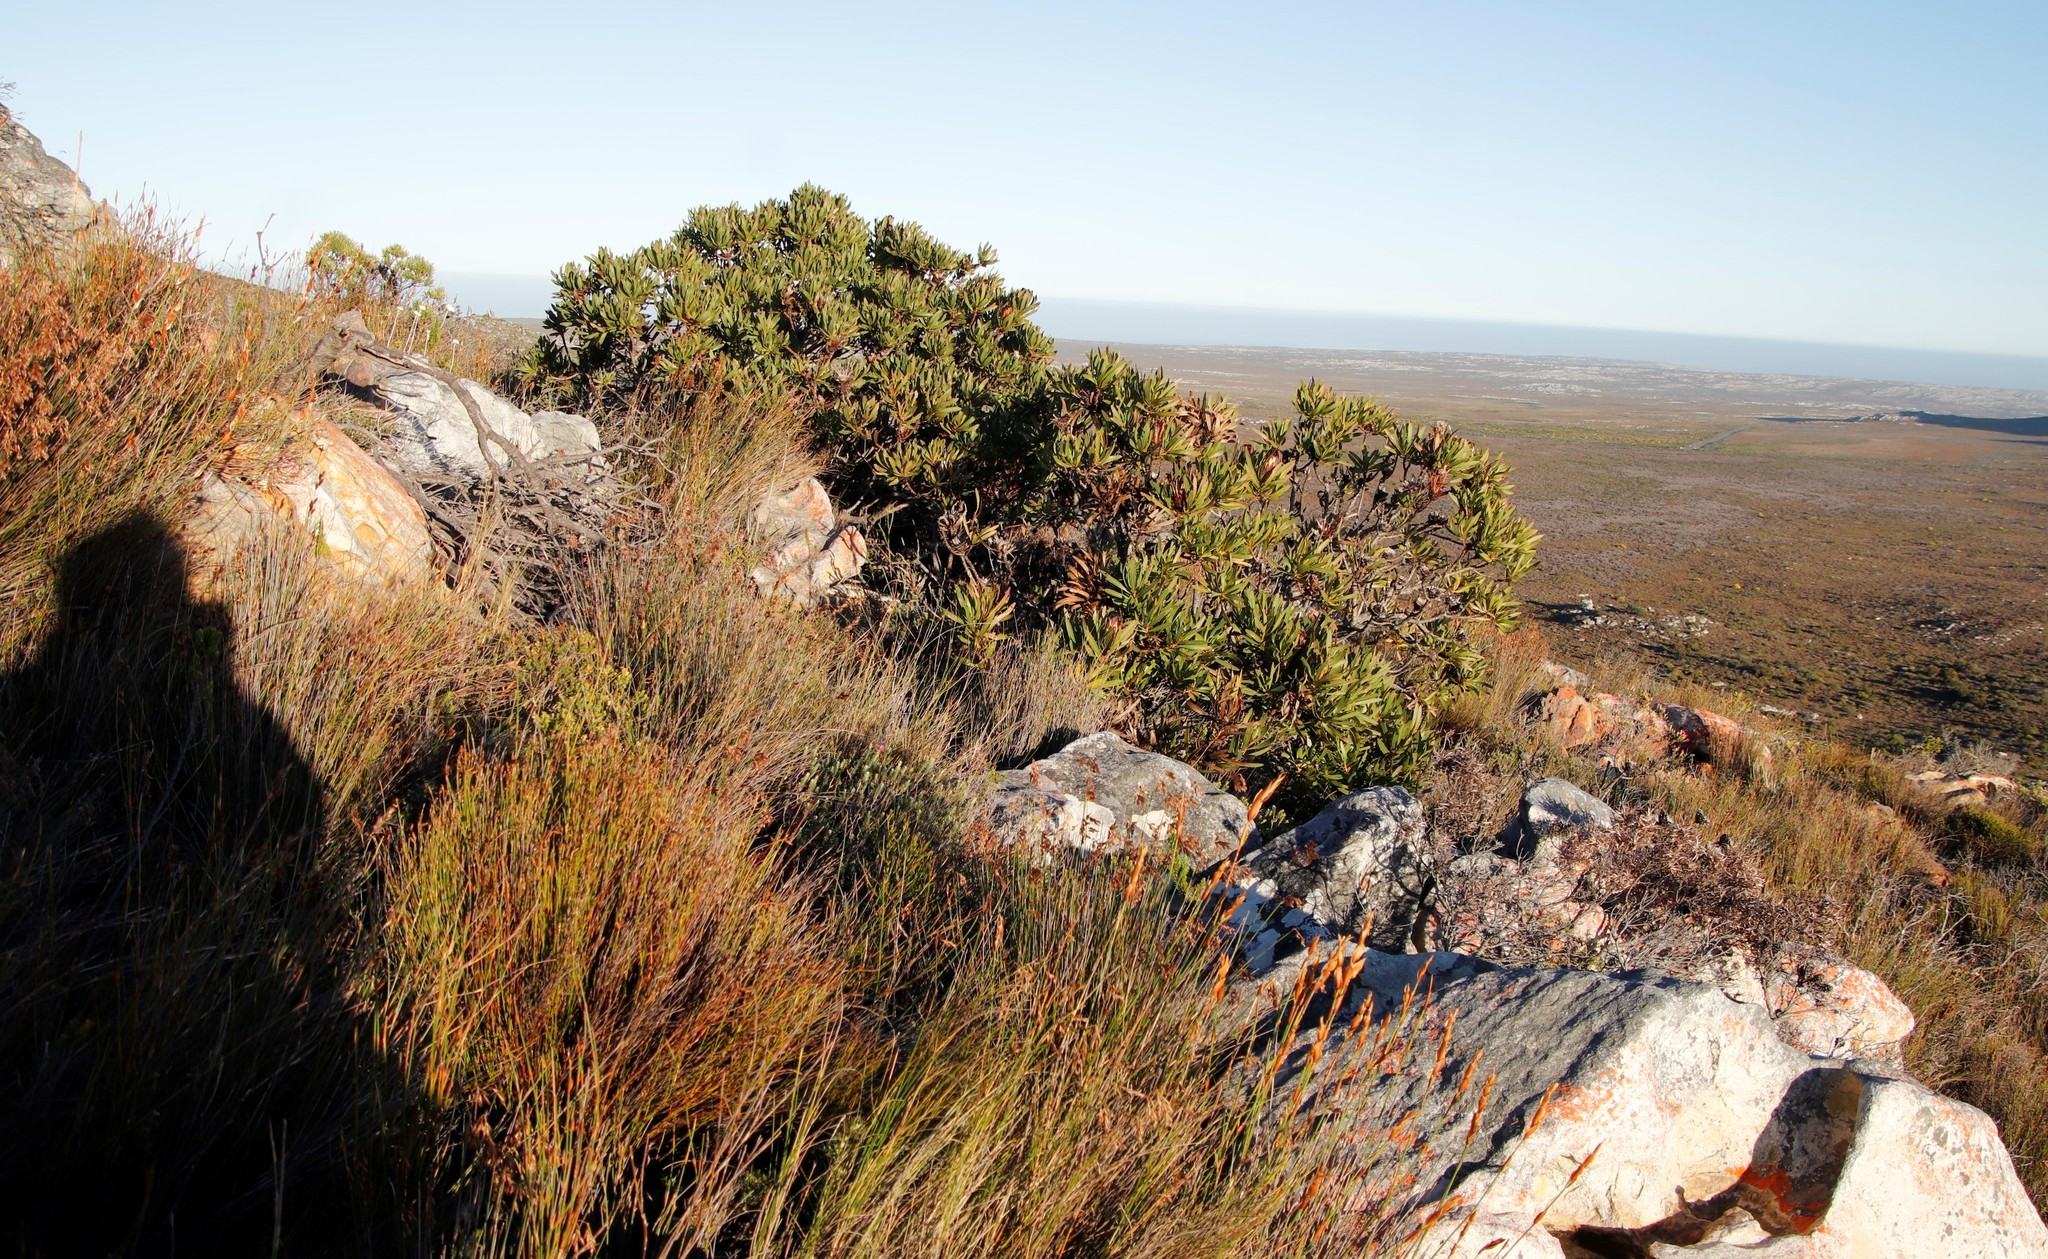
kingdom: Plantae
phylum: Tracheophyta
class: Magnoliopsida
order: Proteales
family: Proteaceae
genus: Protea
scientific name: Protea lepidocarpodendron
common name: Black-bearded protea
